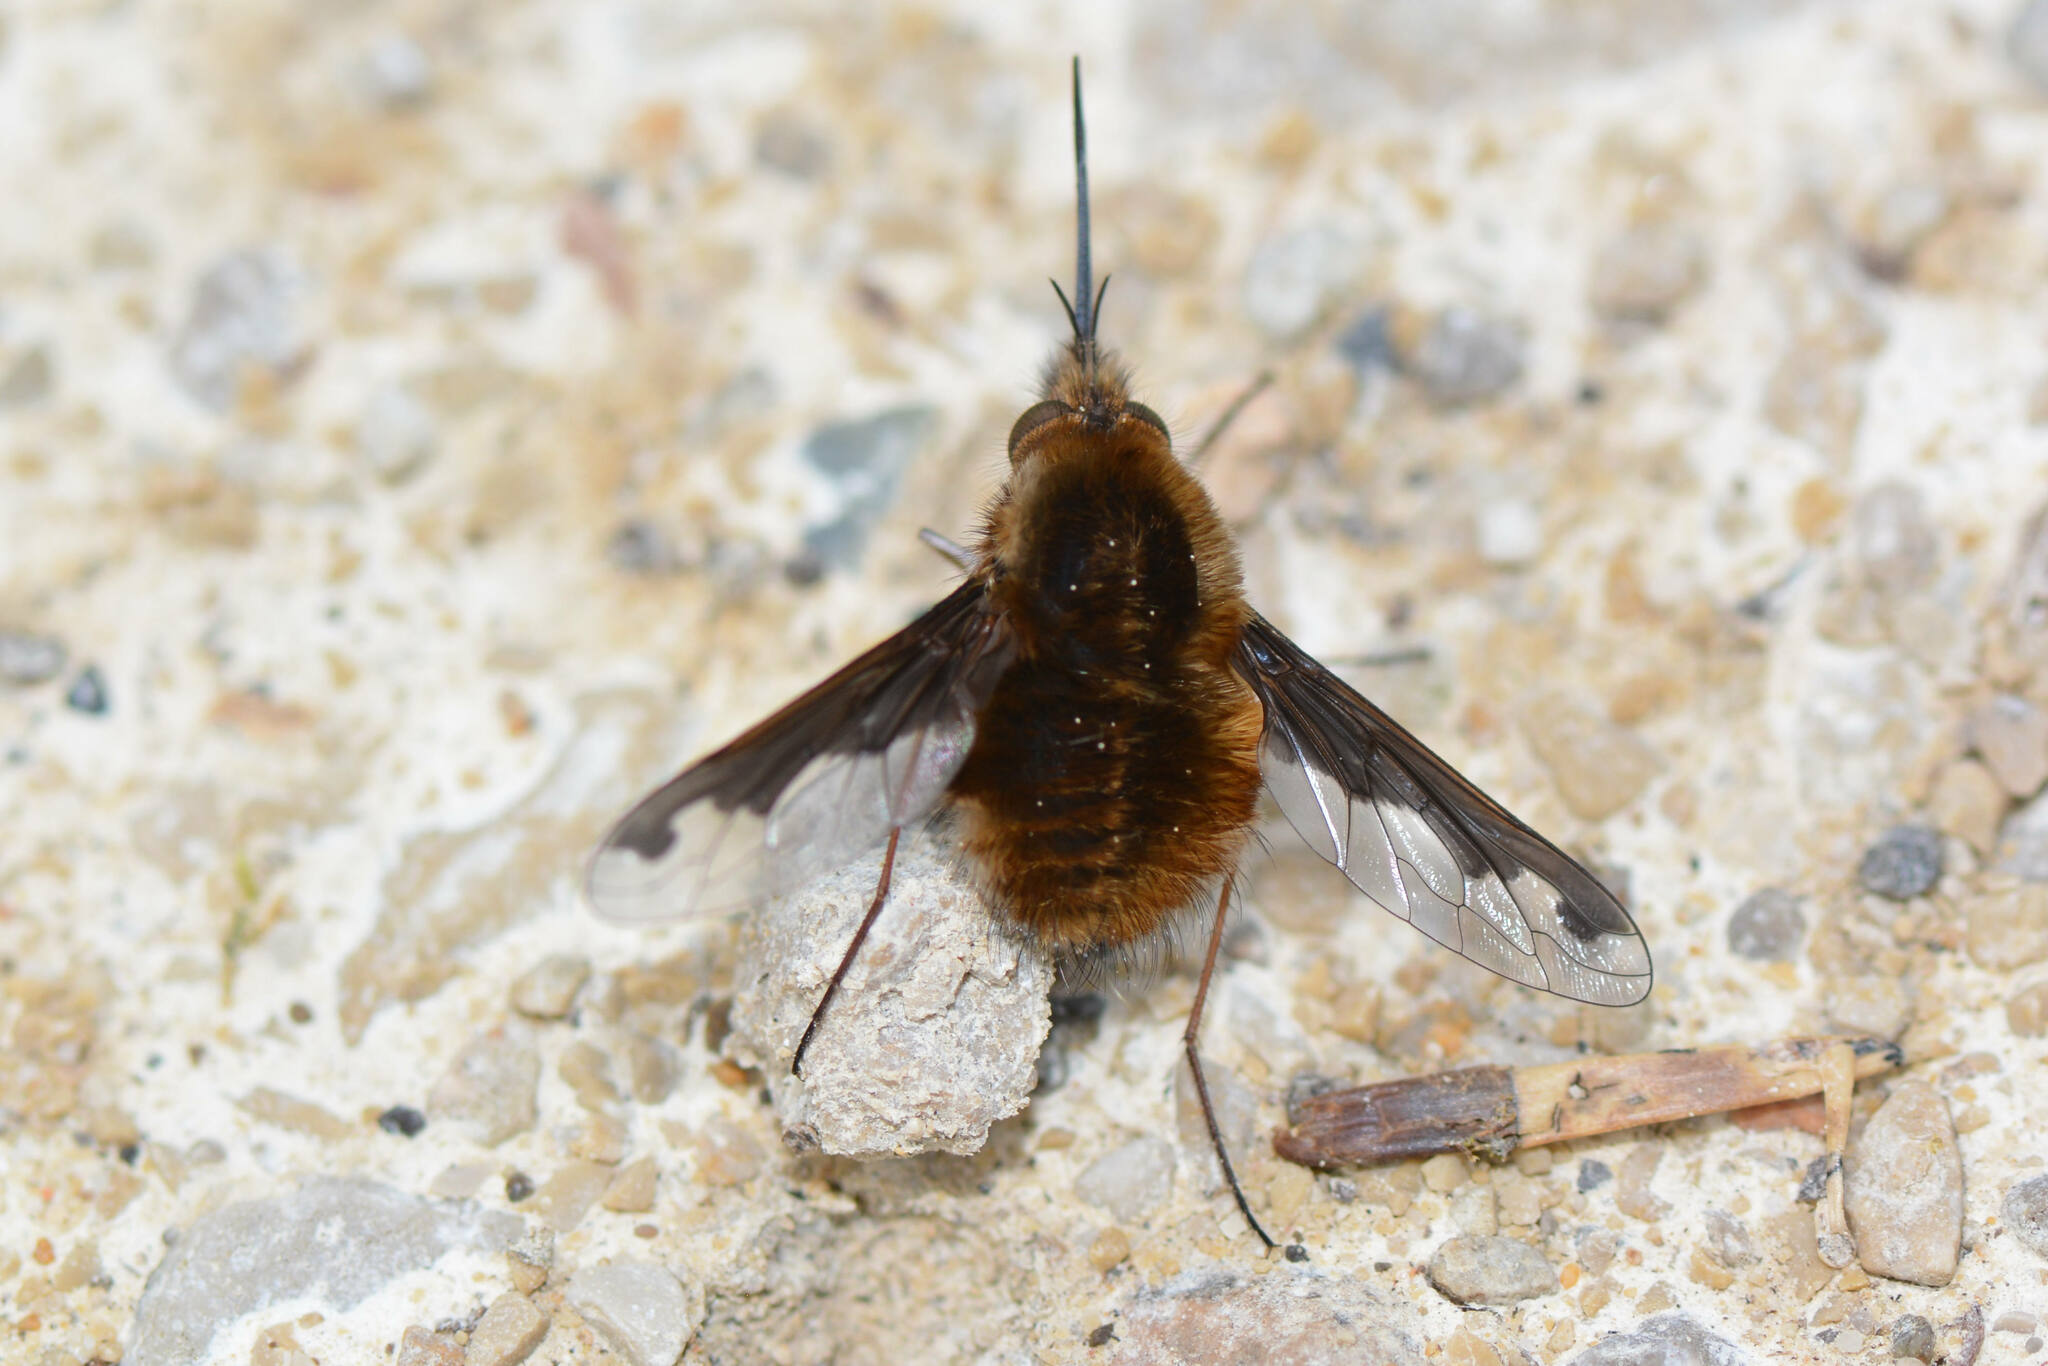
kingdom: Animalia
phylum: Arthropoda
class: Insecta
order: Diptera
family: Bombyliidae
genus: Bombylius
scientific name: Bombylius major
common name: Bee fly
